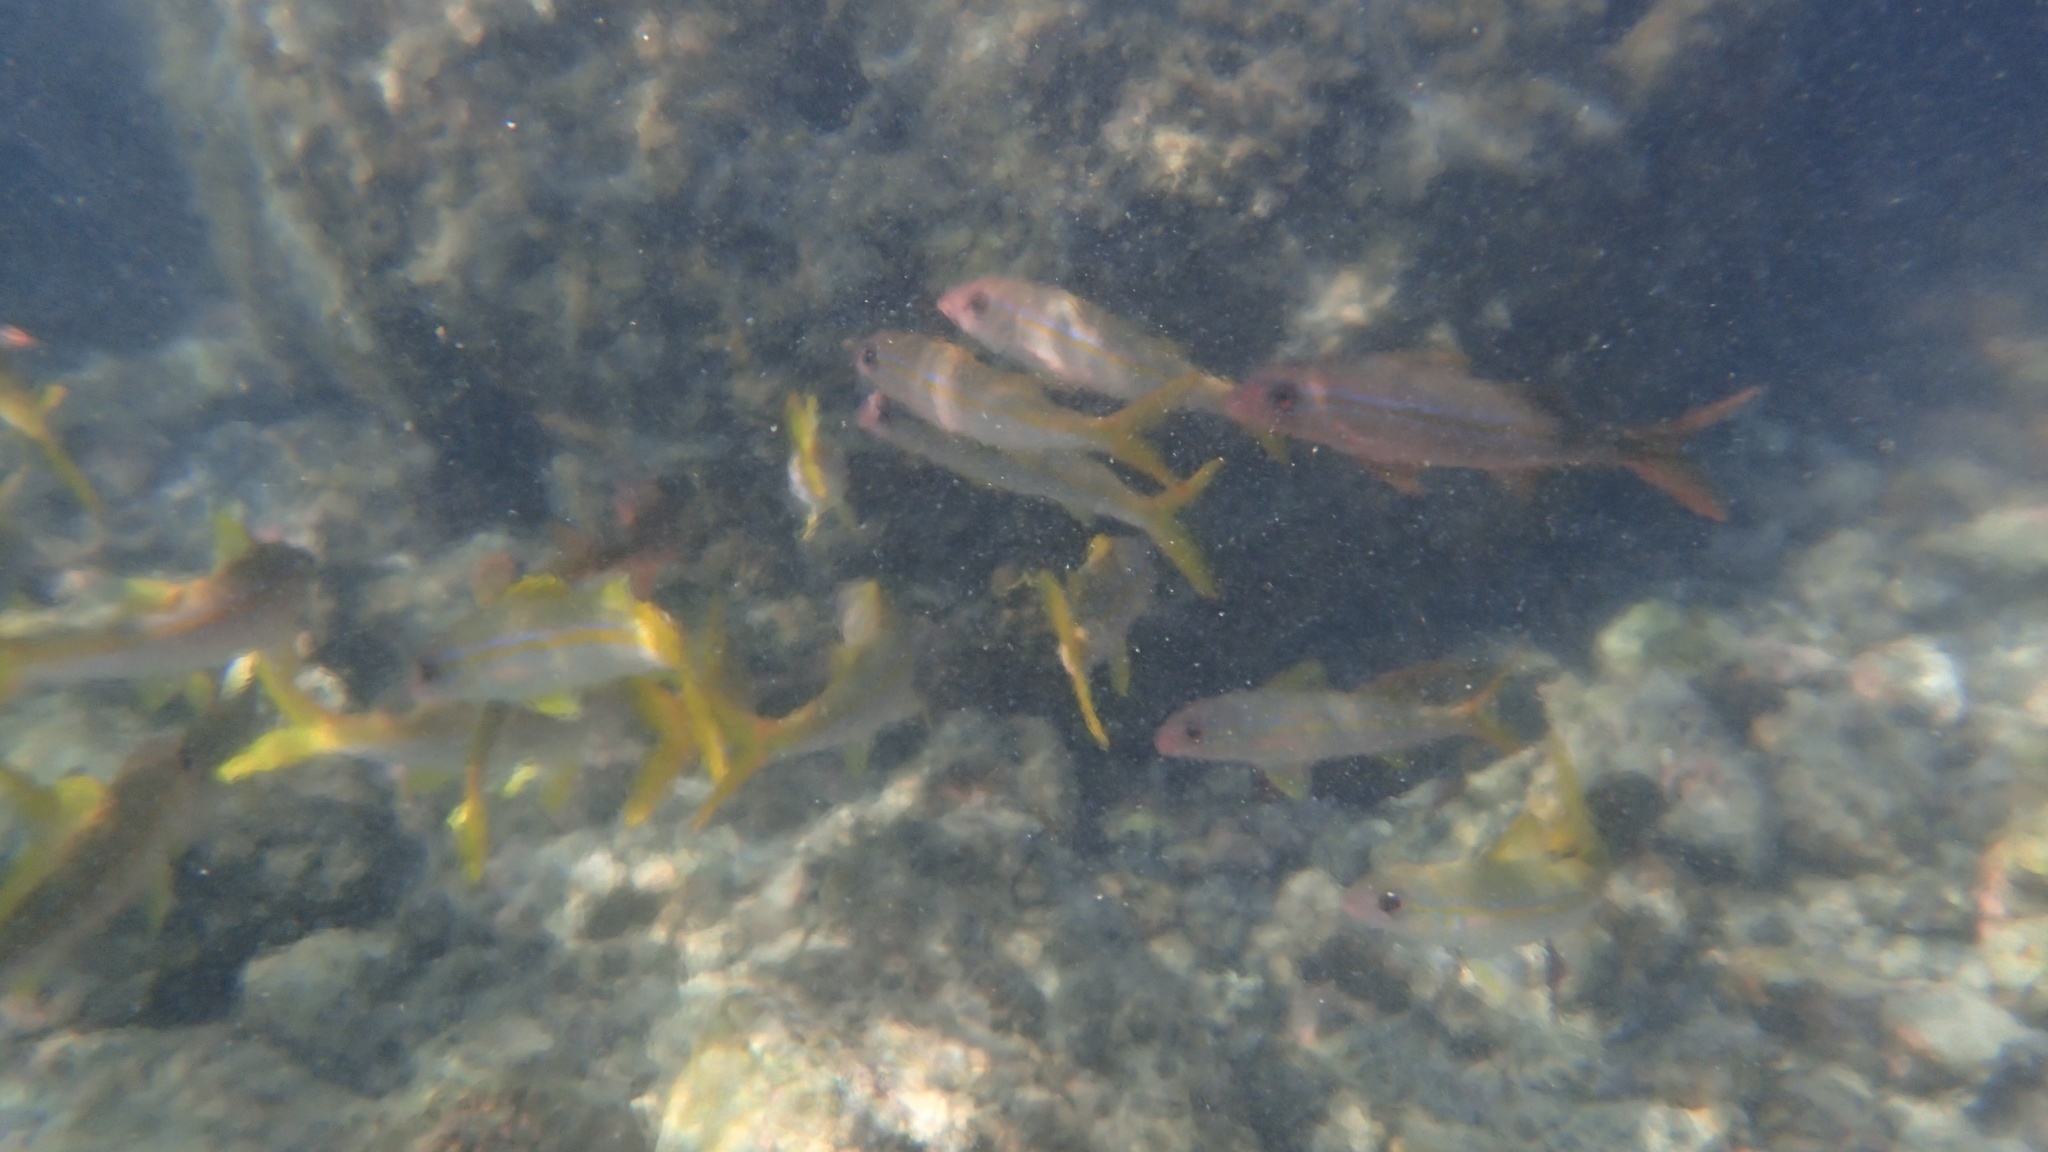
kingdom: Animalia
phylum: Chordata
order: Perciformes
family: Mullidae
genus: Mulloidichthys
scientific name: Mulloidichthys vanicolensis
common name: Yellowfin goatfish
